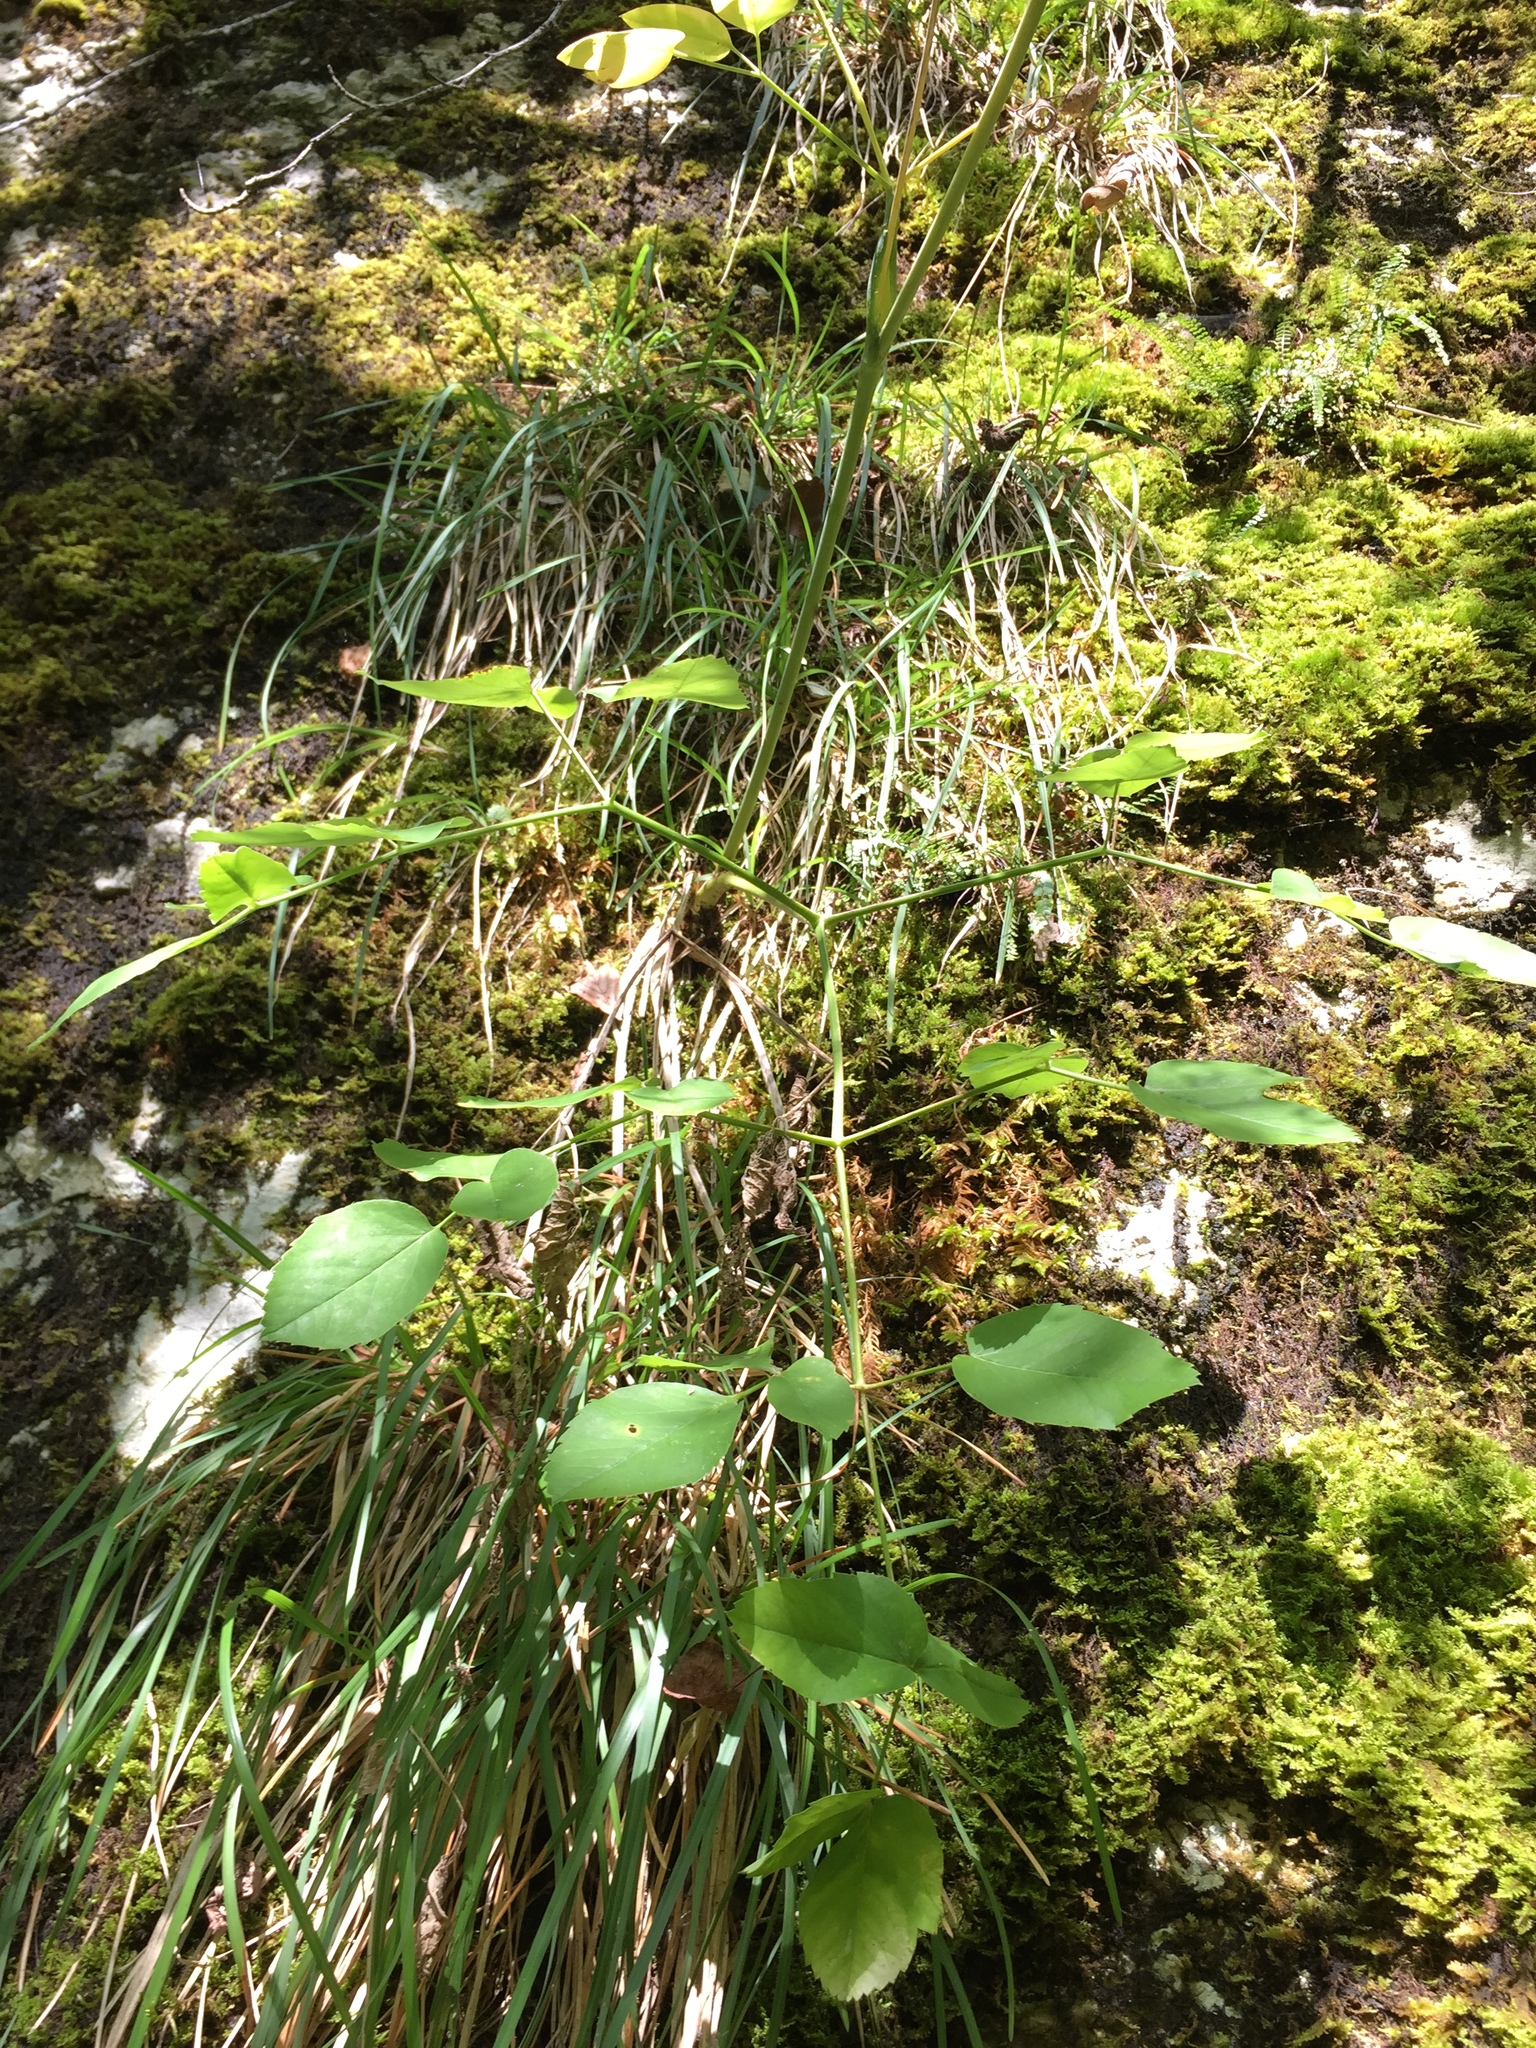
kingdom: Plantae
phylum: Tracheophyta
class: Magnoliopsida
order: Apiales
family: Apiaceae
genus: Laserpitium
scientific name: Laserpitium latifolium
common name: Broadleaf sermountain
